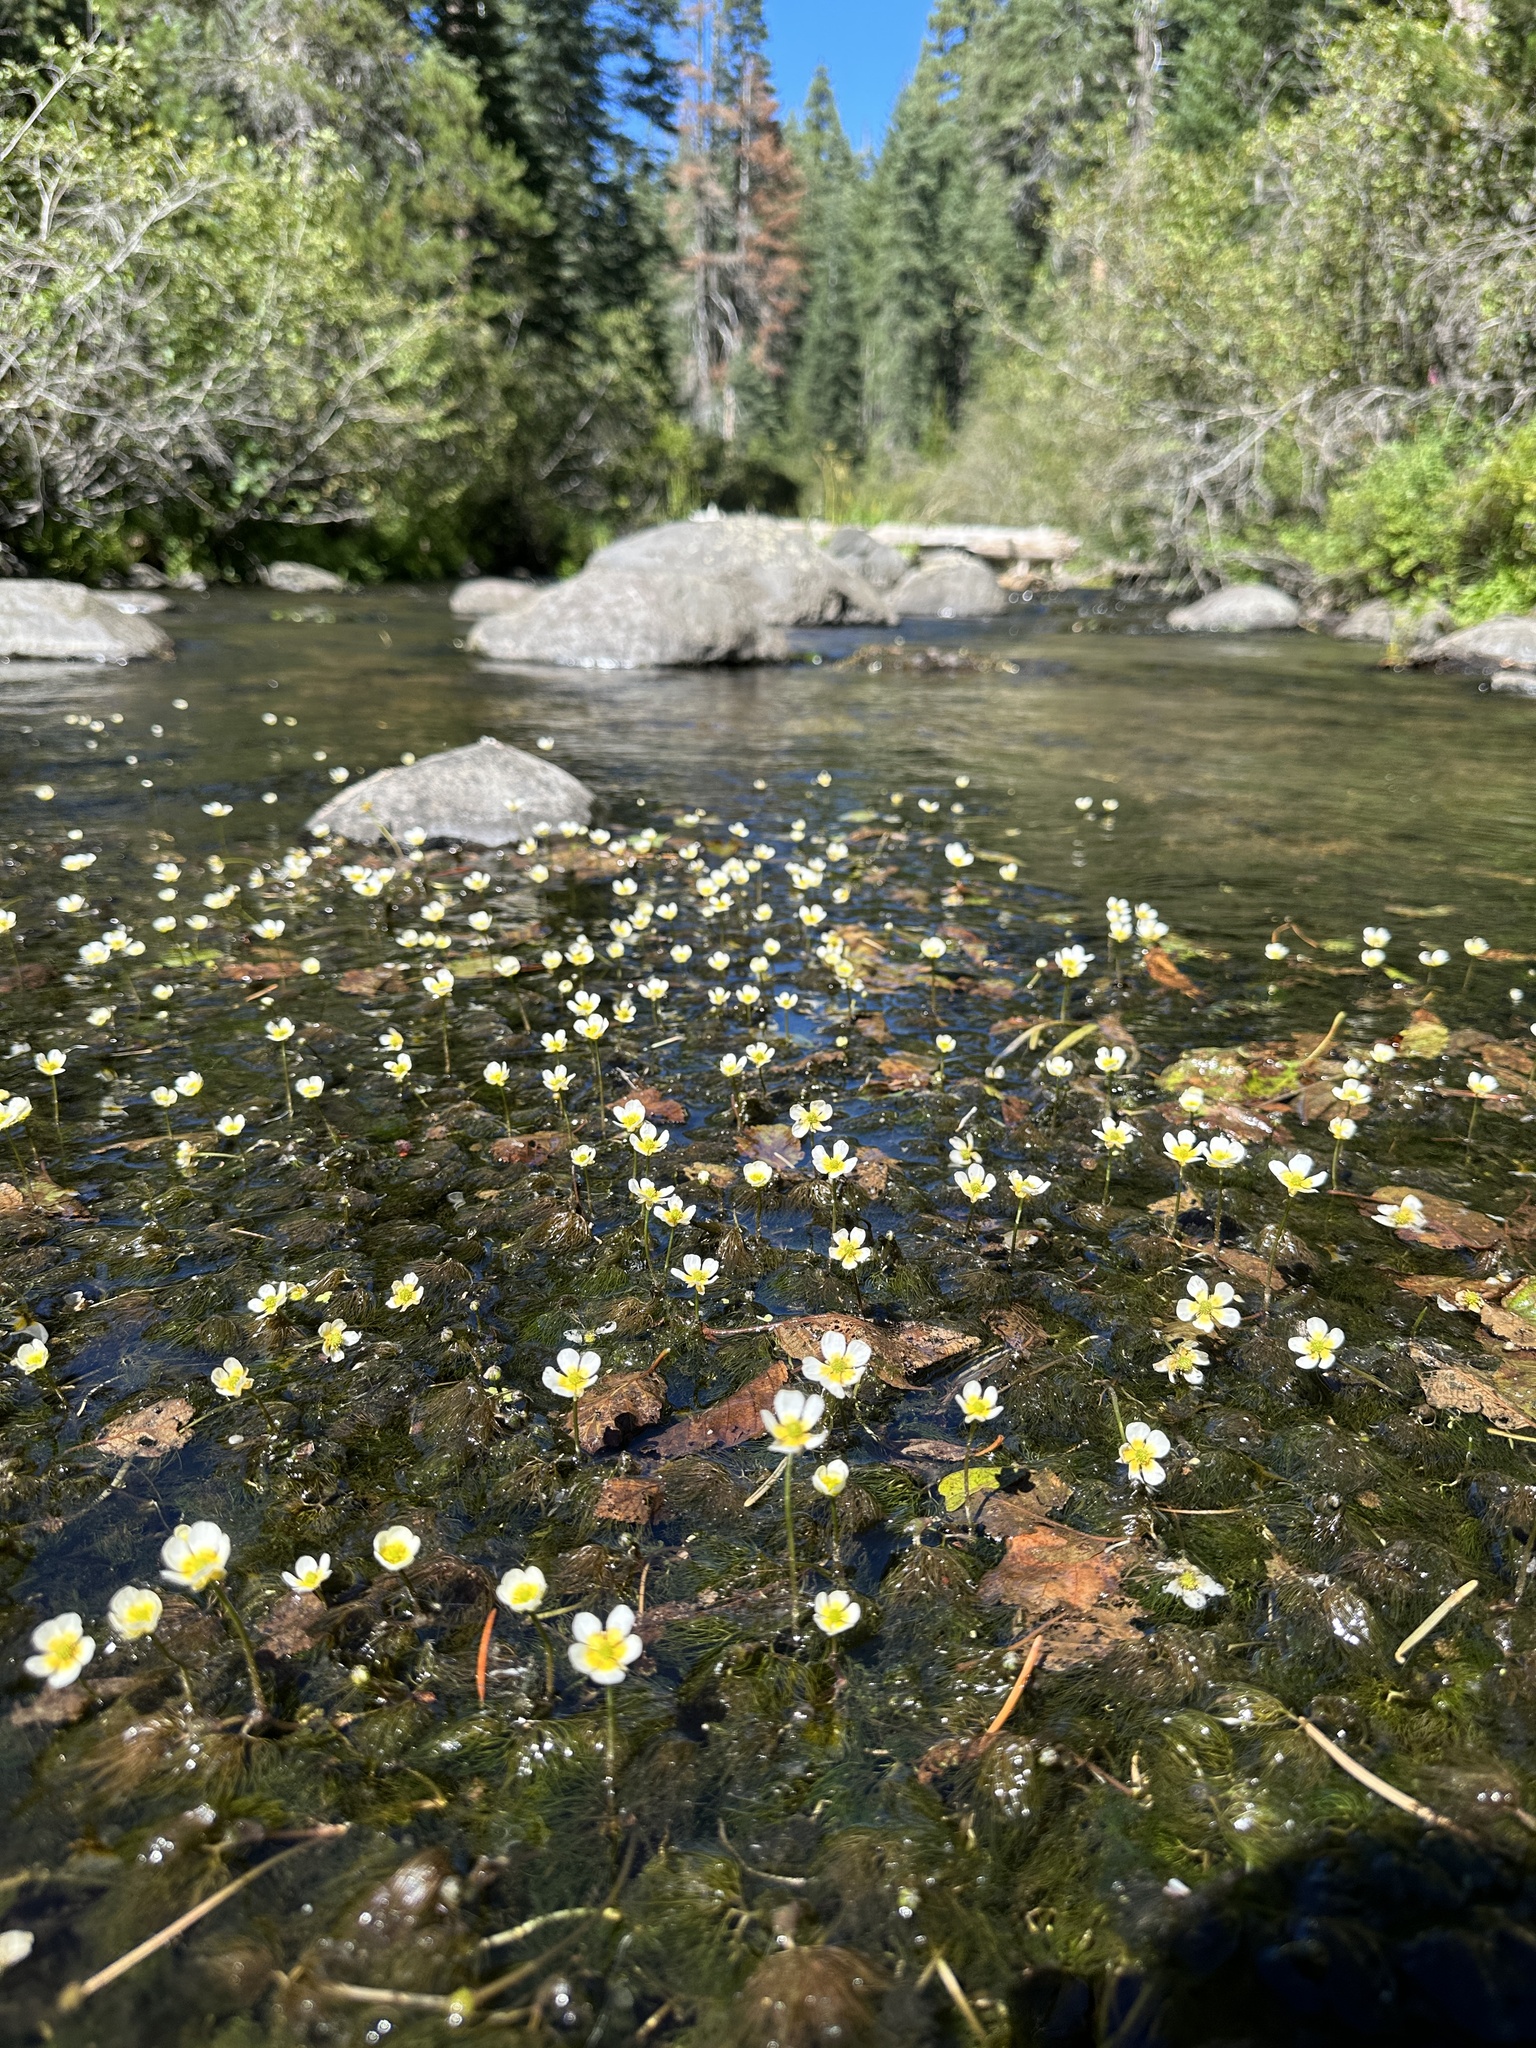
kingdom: Plantae
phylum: Tracheophyta
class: Magnoliopsida
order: Ranunculales
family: Ranunculaceae
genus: Ranunculus
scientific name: Ranunculus aquatilis
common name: Common water-crowfoot
